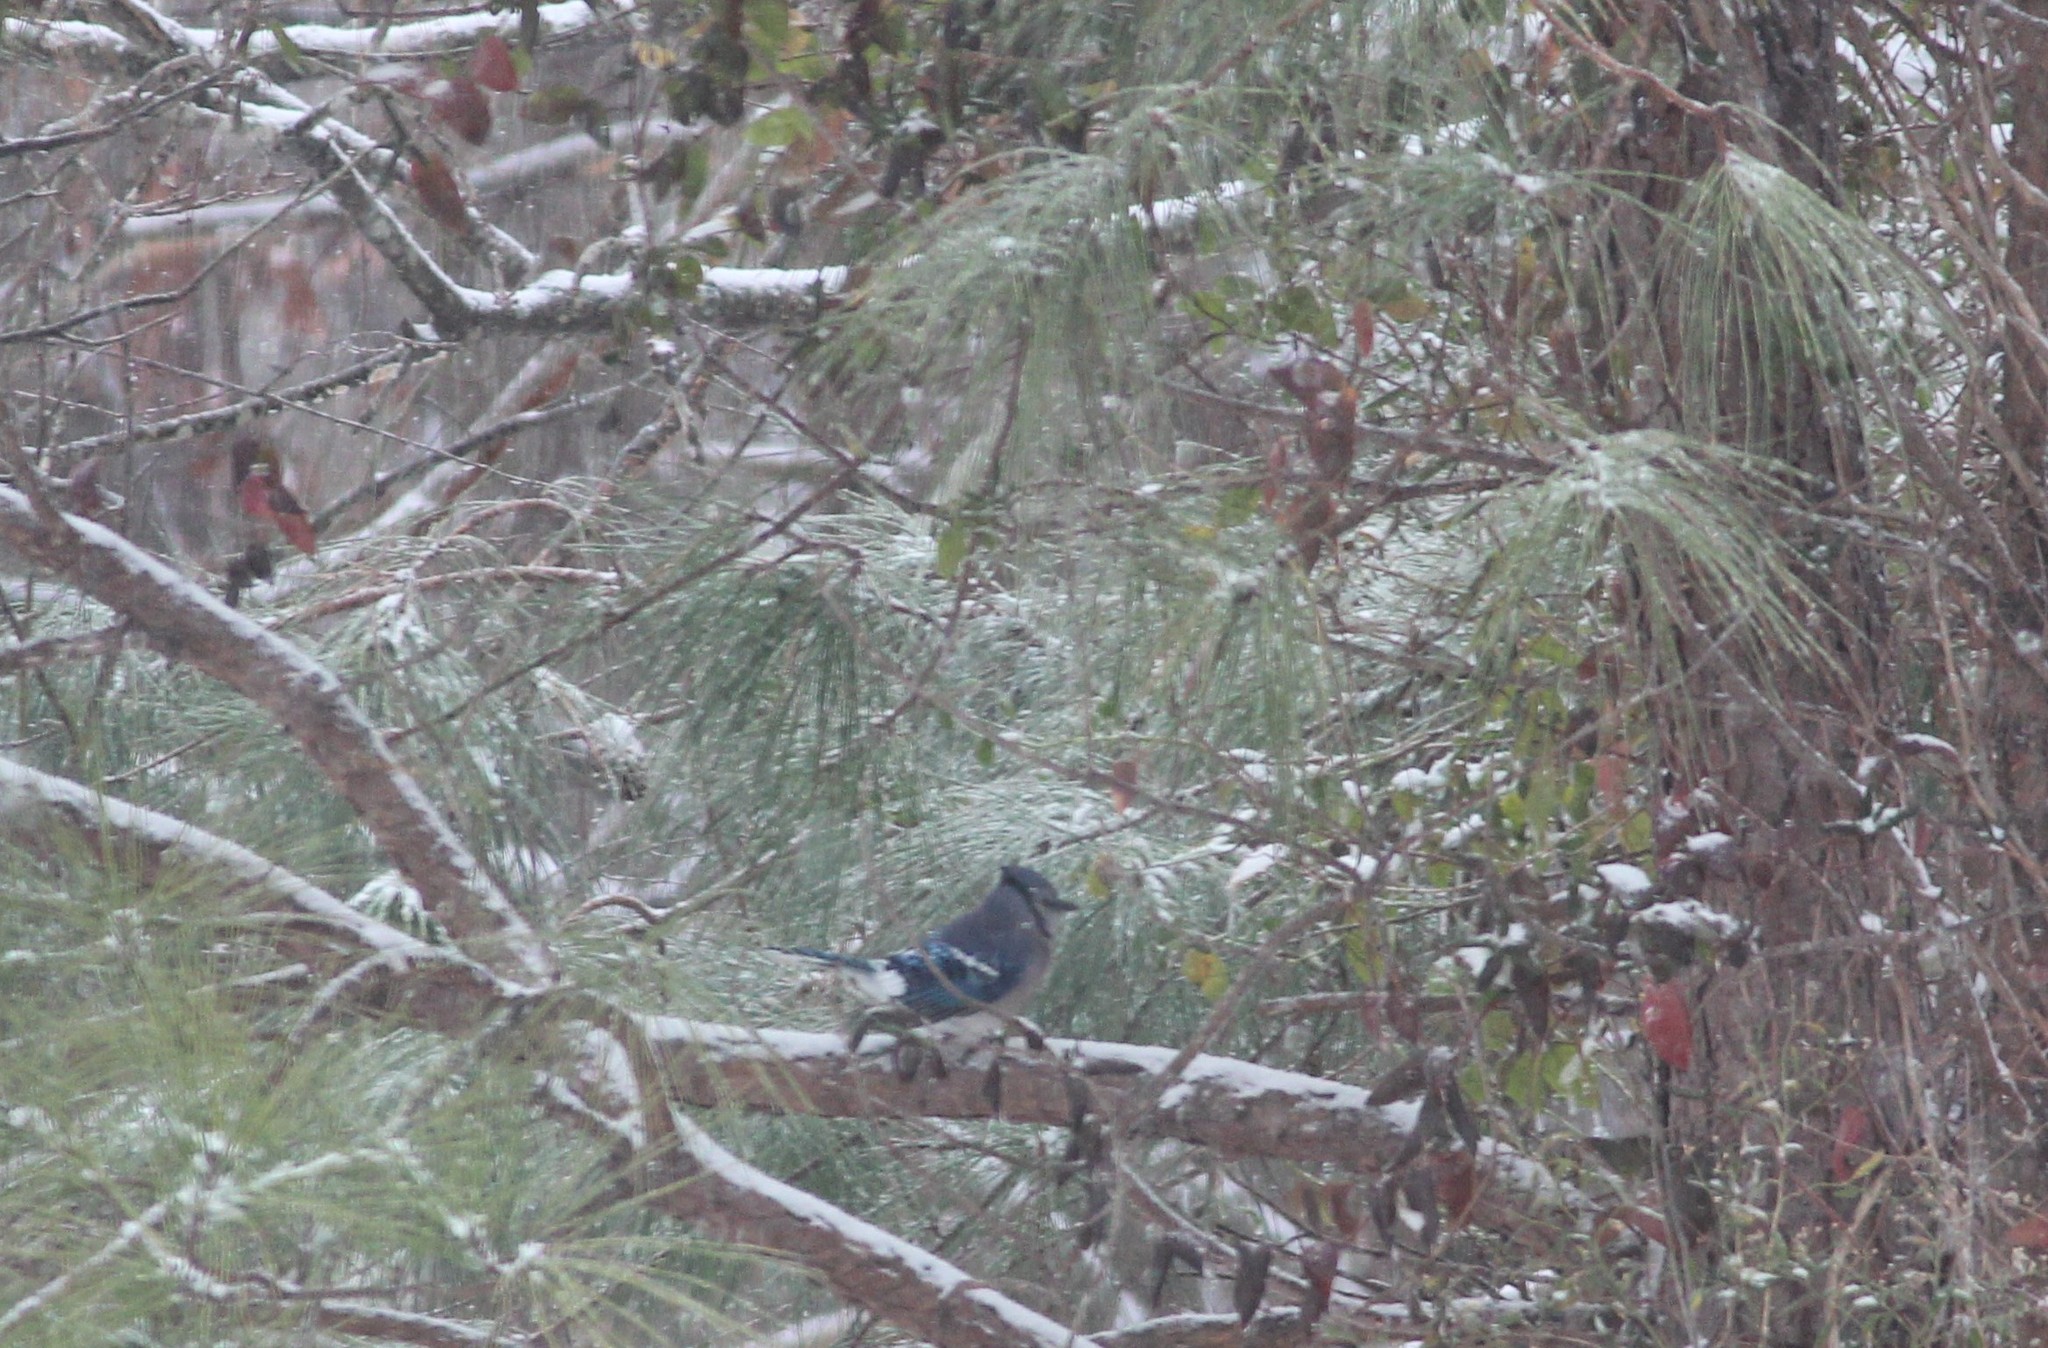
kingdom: Animalia
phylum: Chordata
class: Aves
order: Passeriformes
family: Corvidae
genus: Cyanocitta
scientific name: Cyanocitta cristata
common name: Blue jay
